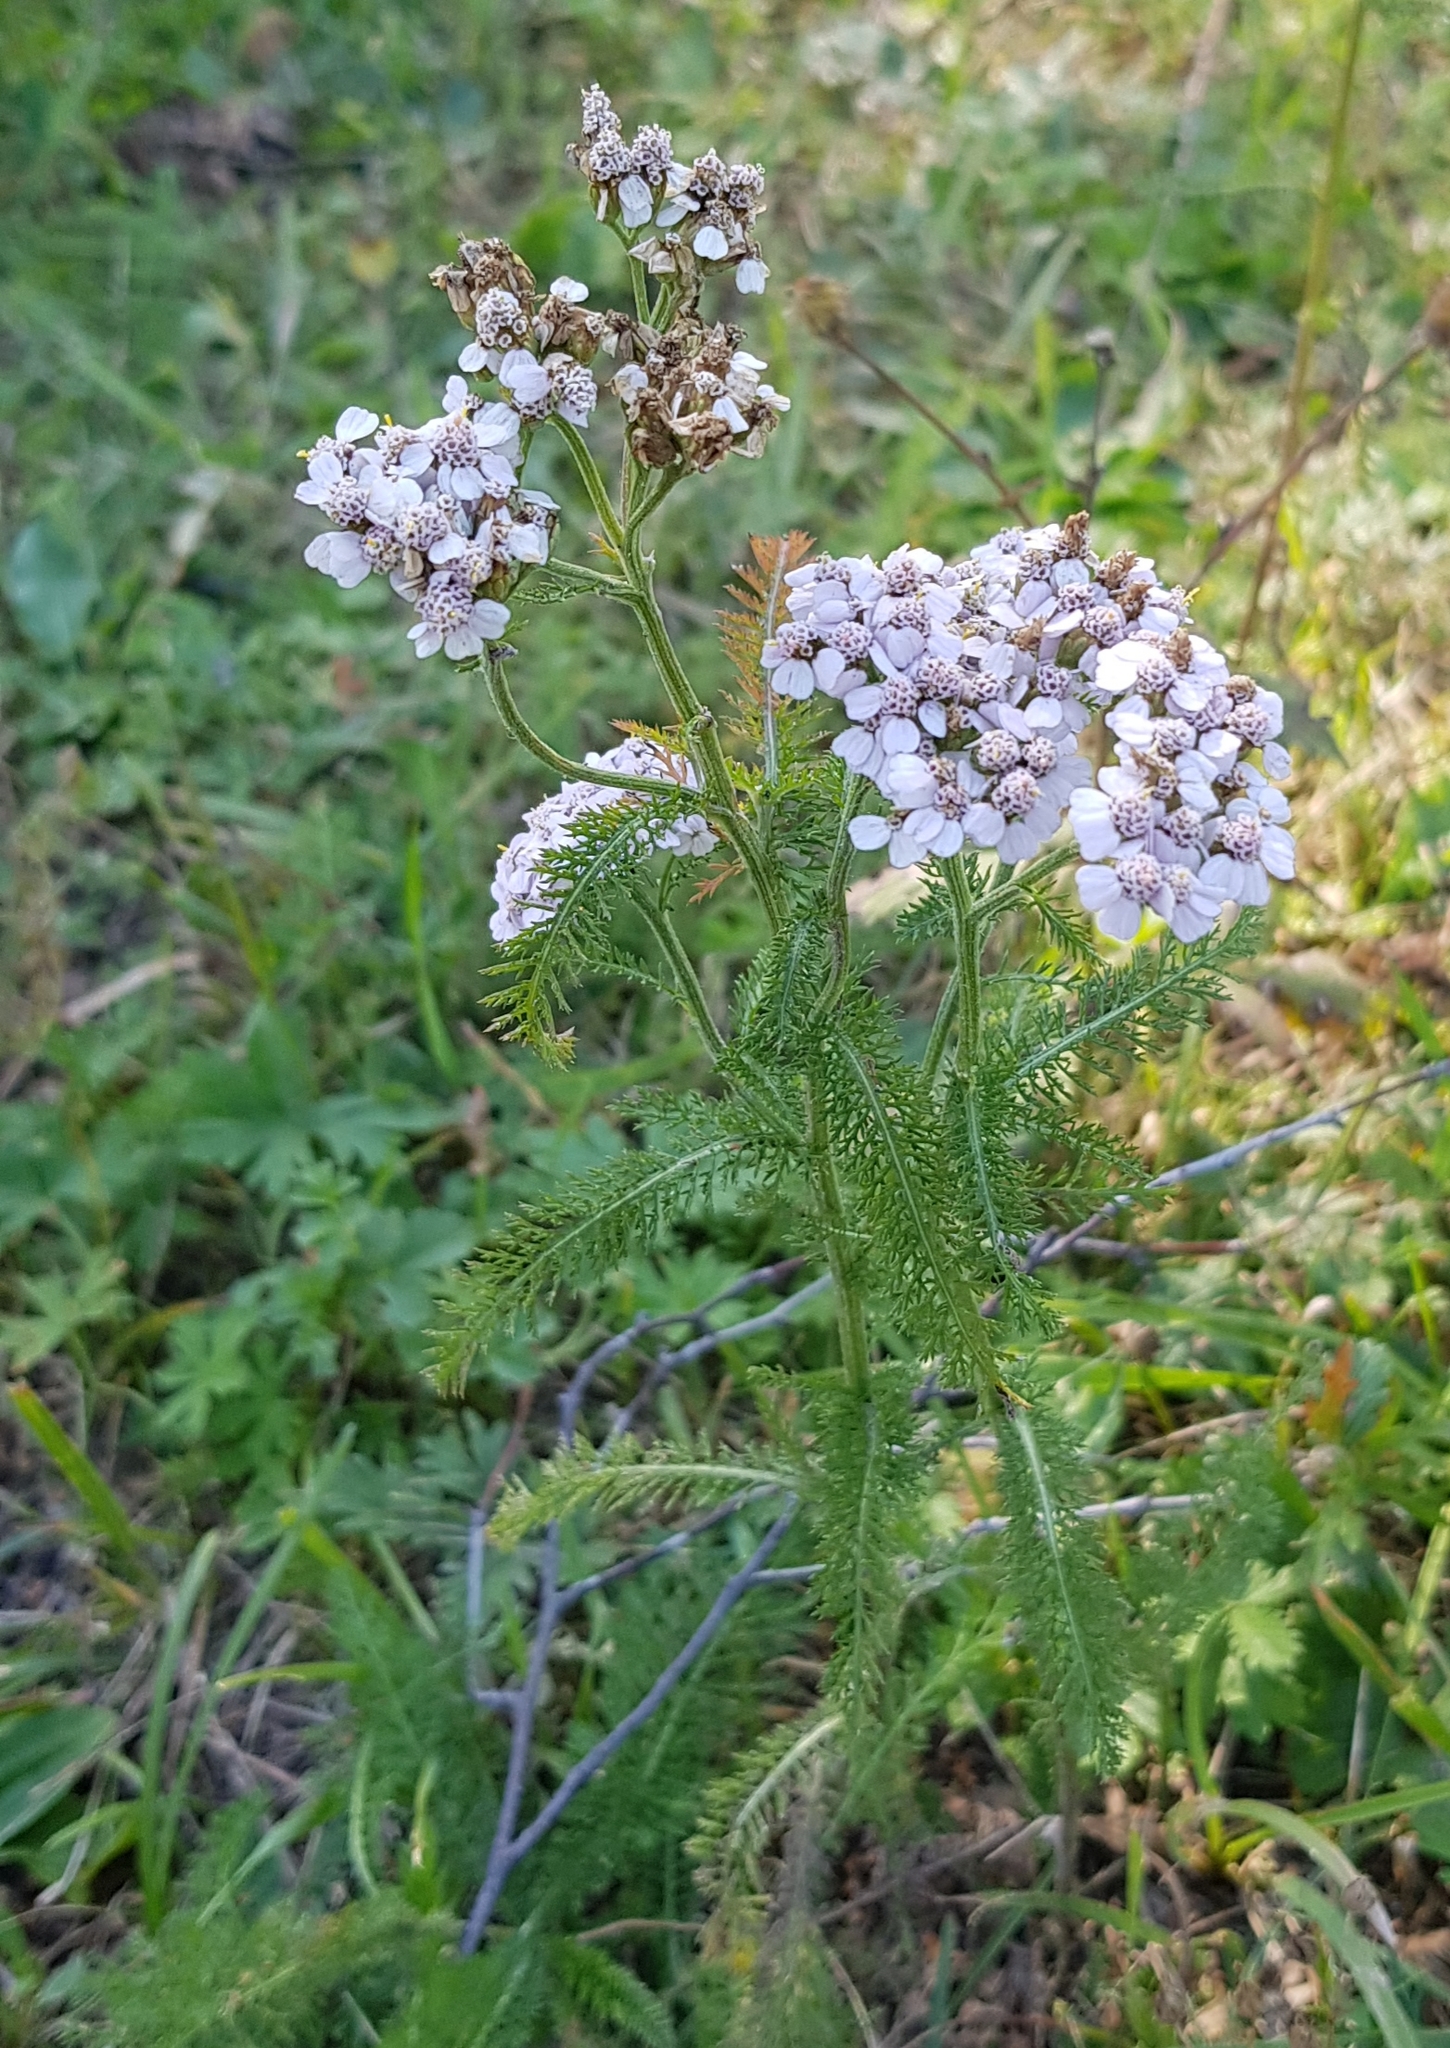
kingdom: Plantae
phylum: Tracheophyta
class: Magnoliopsida
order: Asterales
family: Asteraceae
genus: Achillea
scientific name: Achillea asiatica
